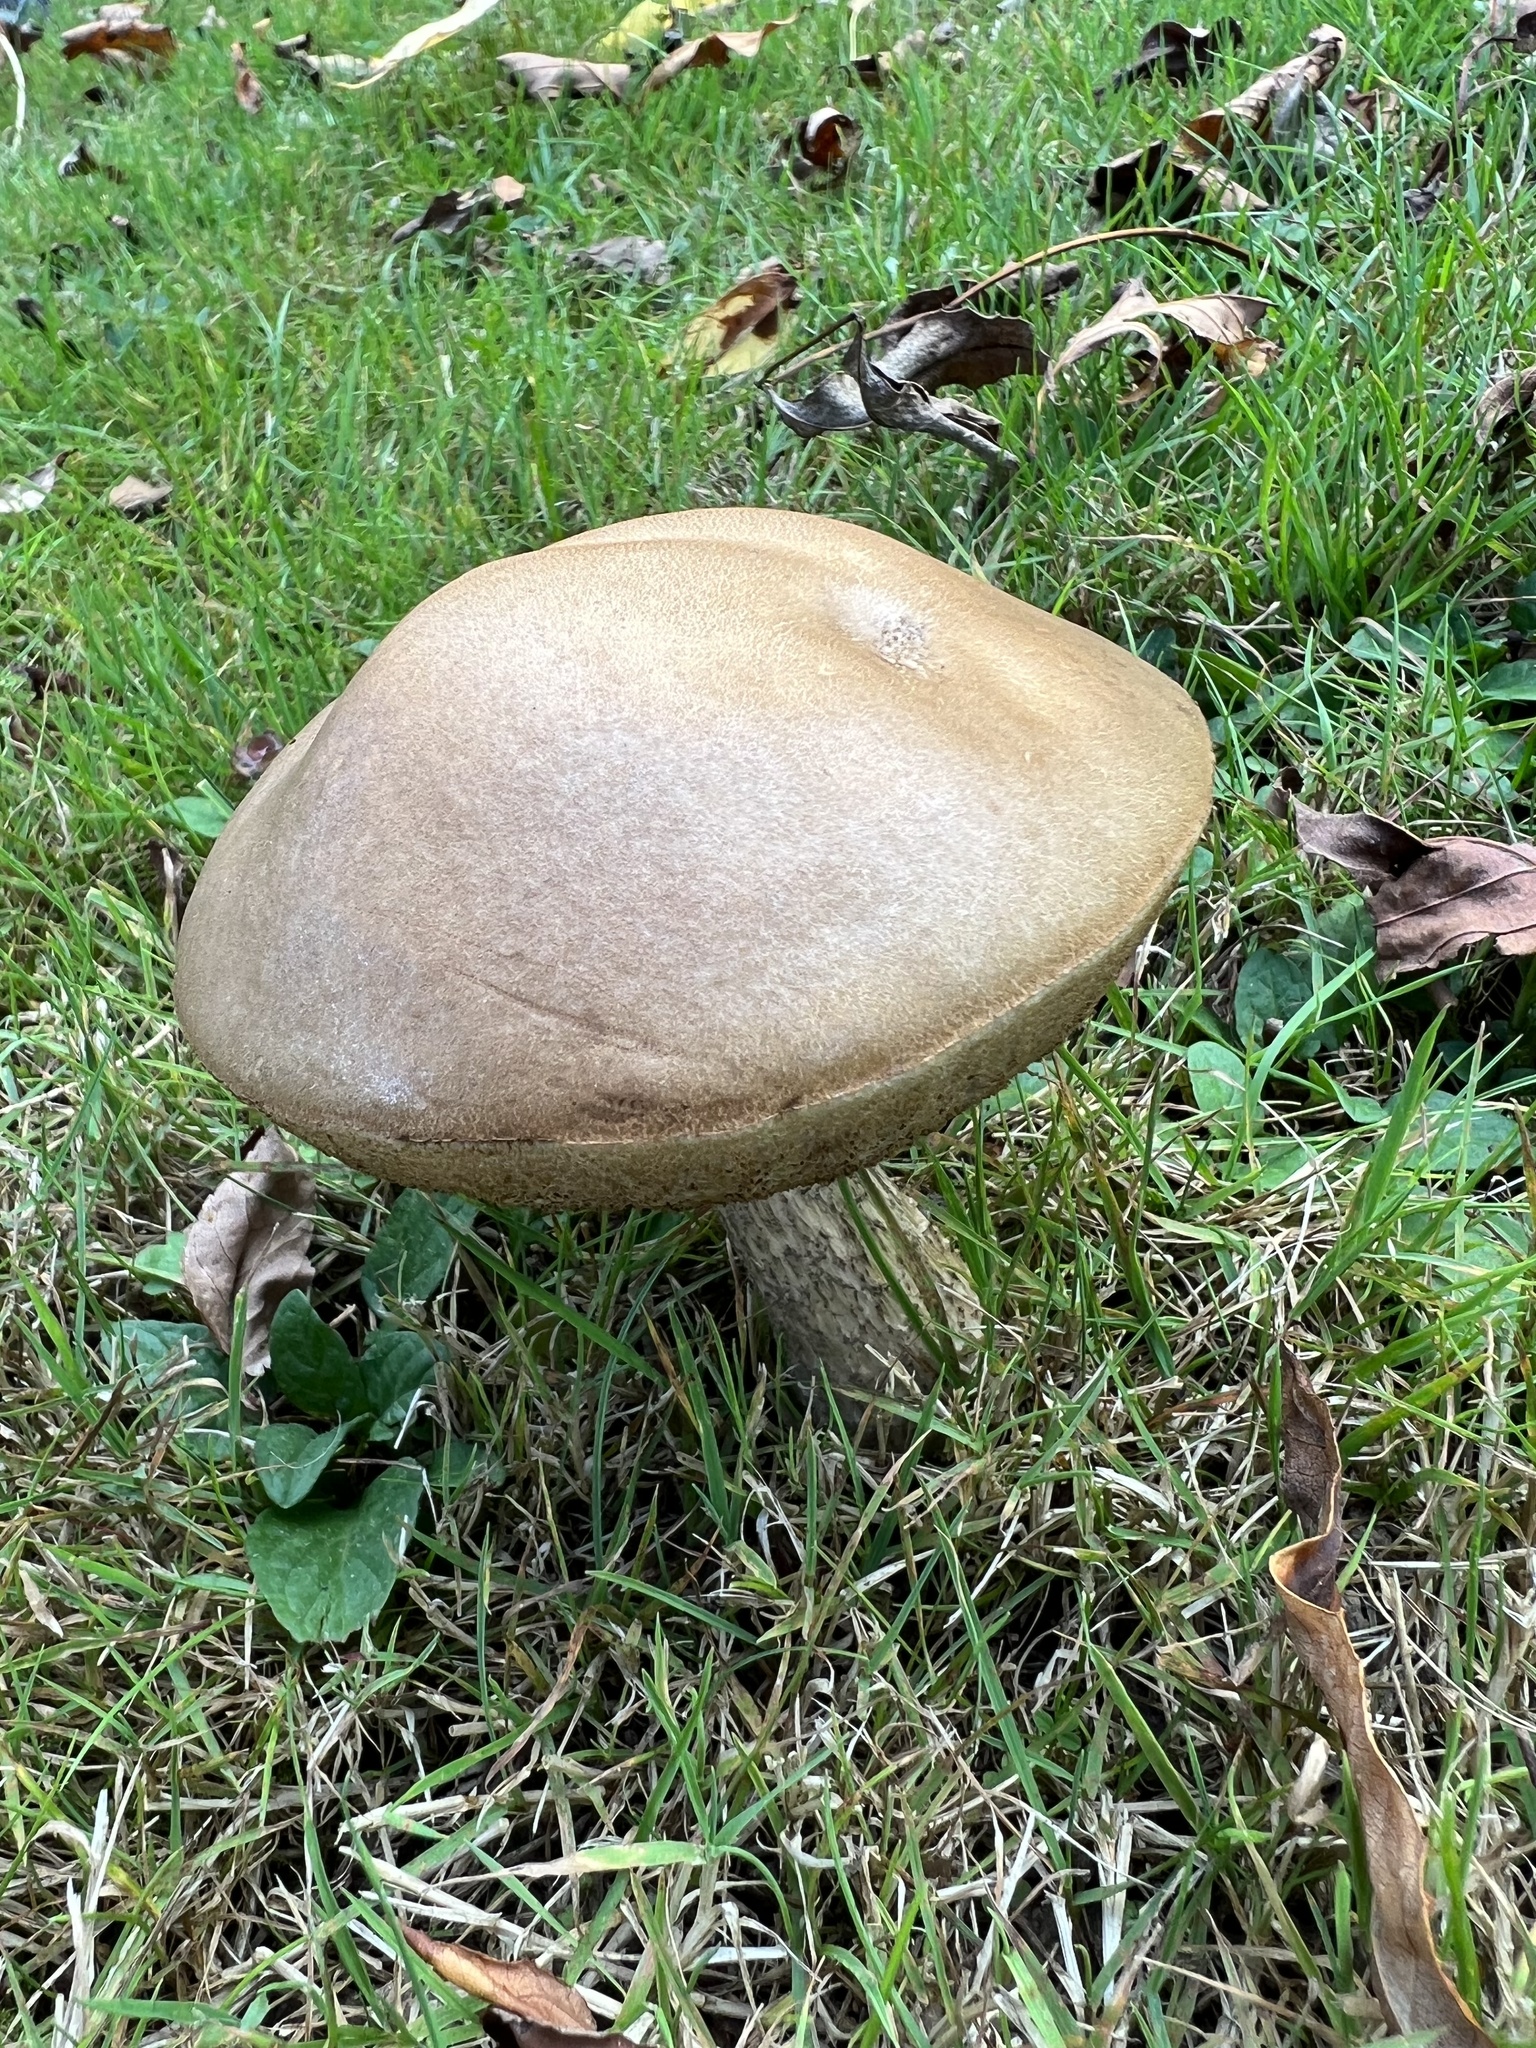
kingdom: Fungi
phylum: Basidiomycota
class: Agaricomycetes
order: Boletales
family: Boletaceae
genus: Leccinum
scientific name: Leccinum scabrum
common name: Blushing bolete
